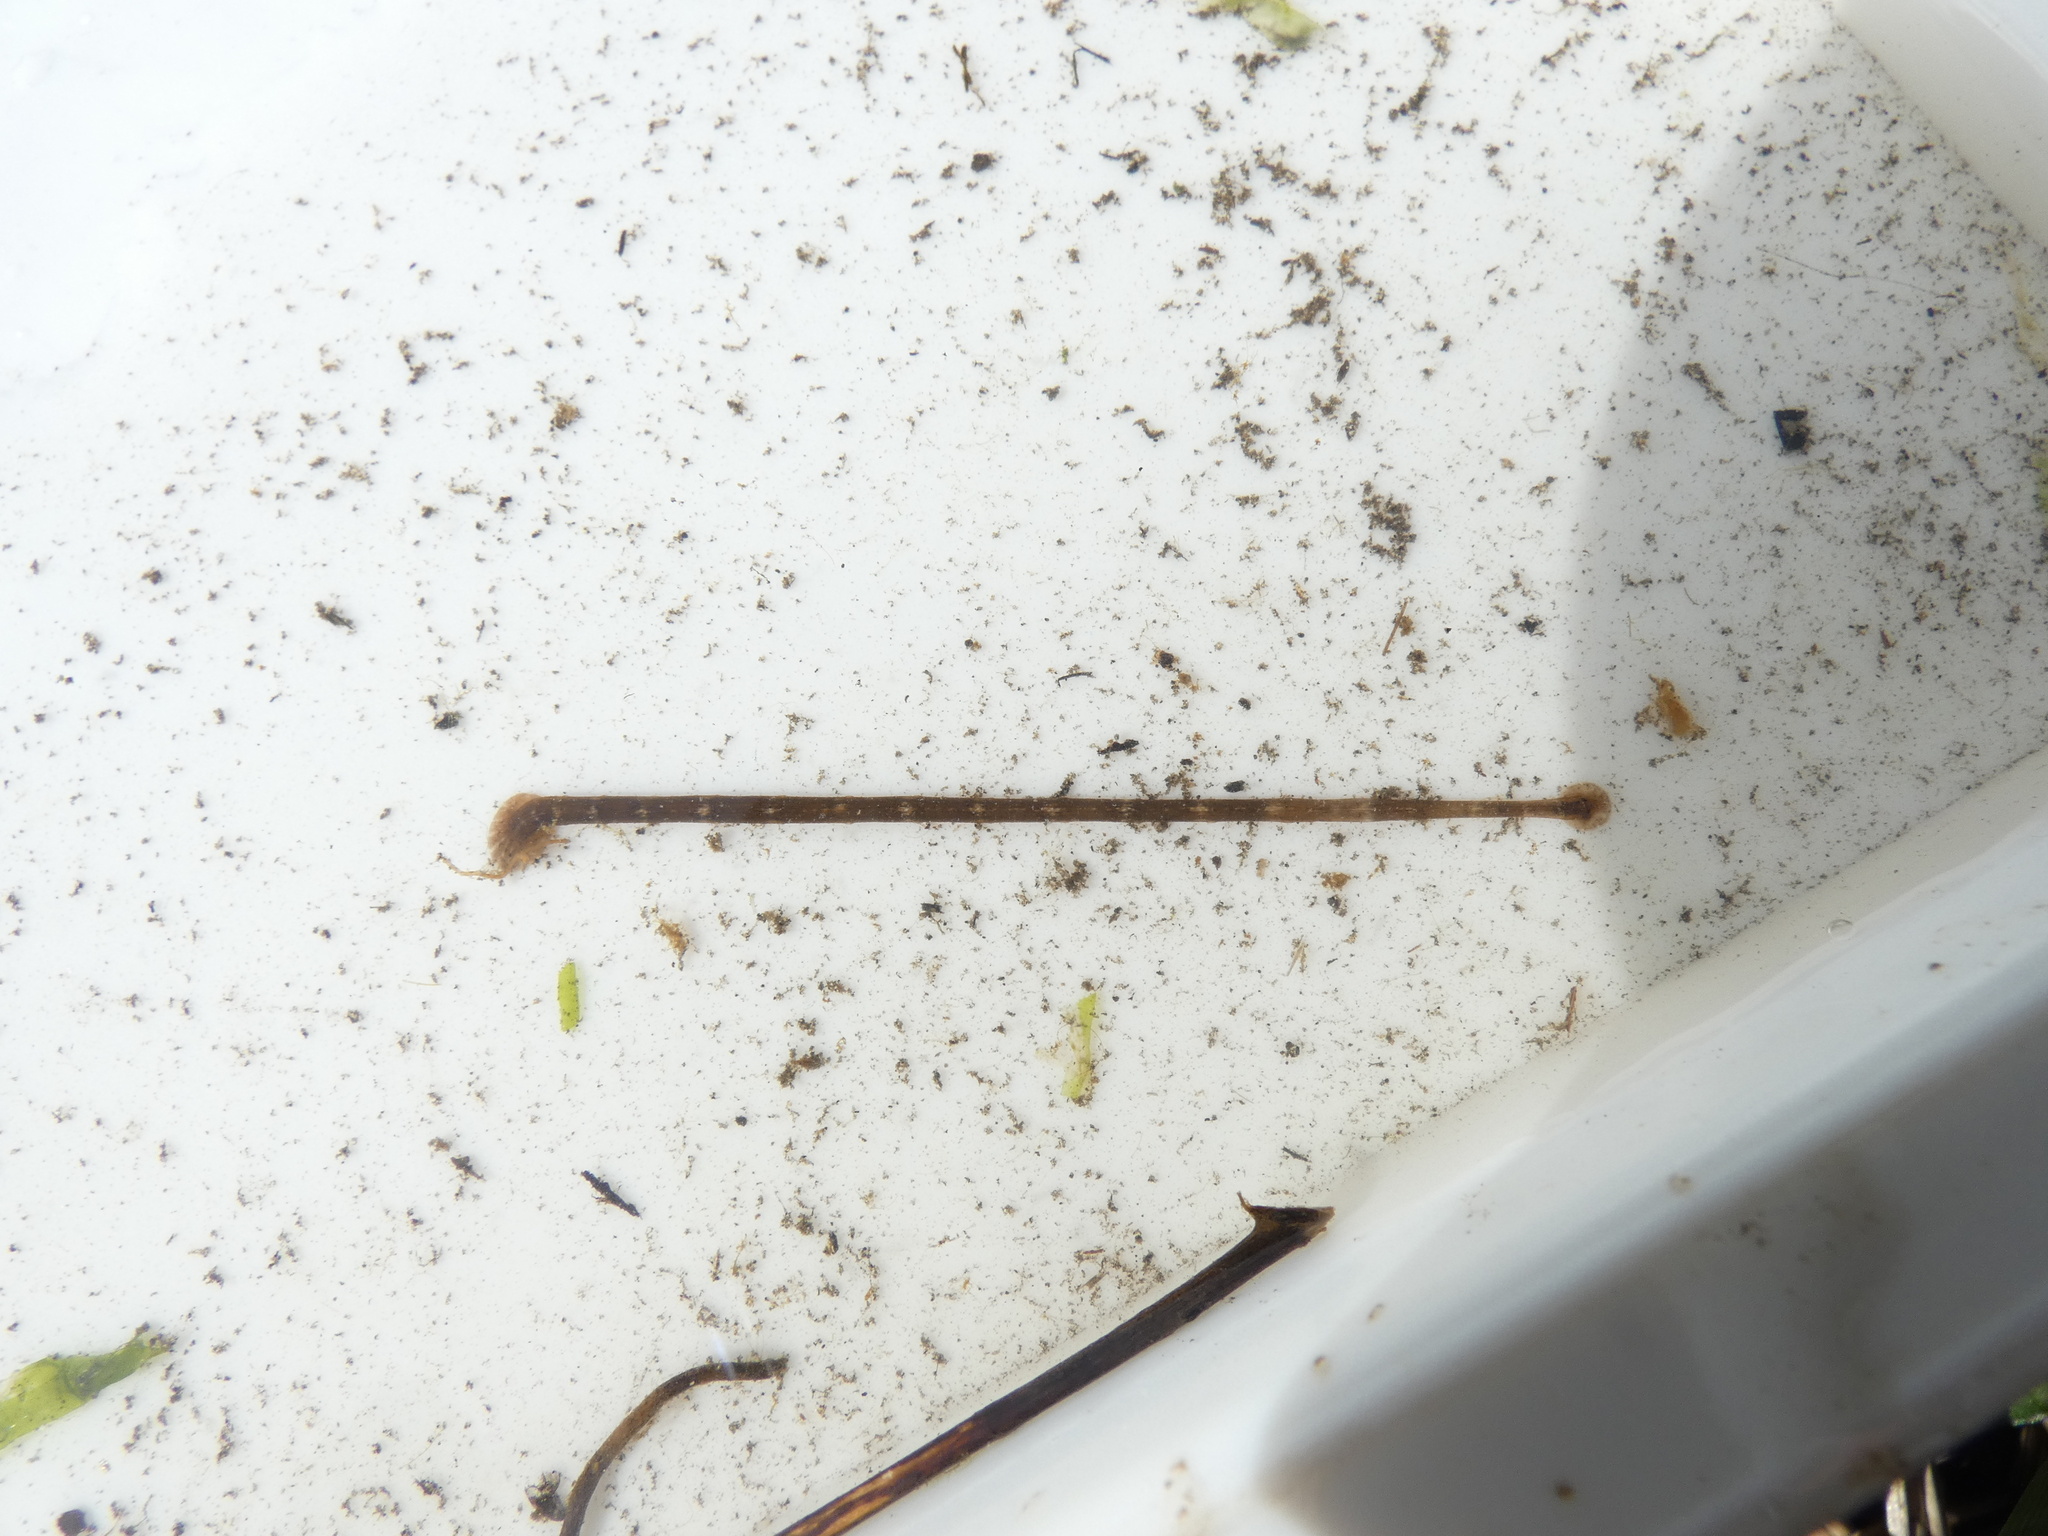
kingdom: Animalia
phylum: Annelida
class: Clitellata
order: Rhynchobdellida
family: Piscicolidae
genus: Piscicola
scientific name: Piscicola geometra
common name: Fish leech
